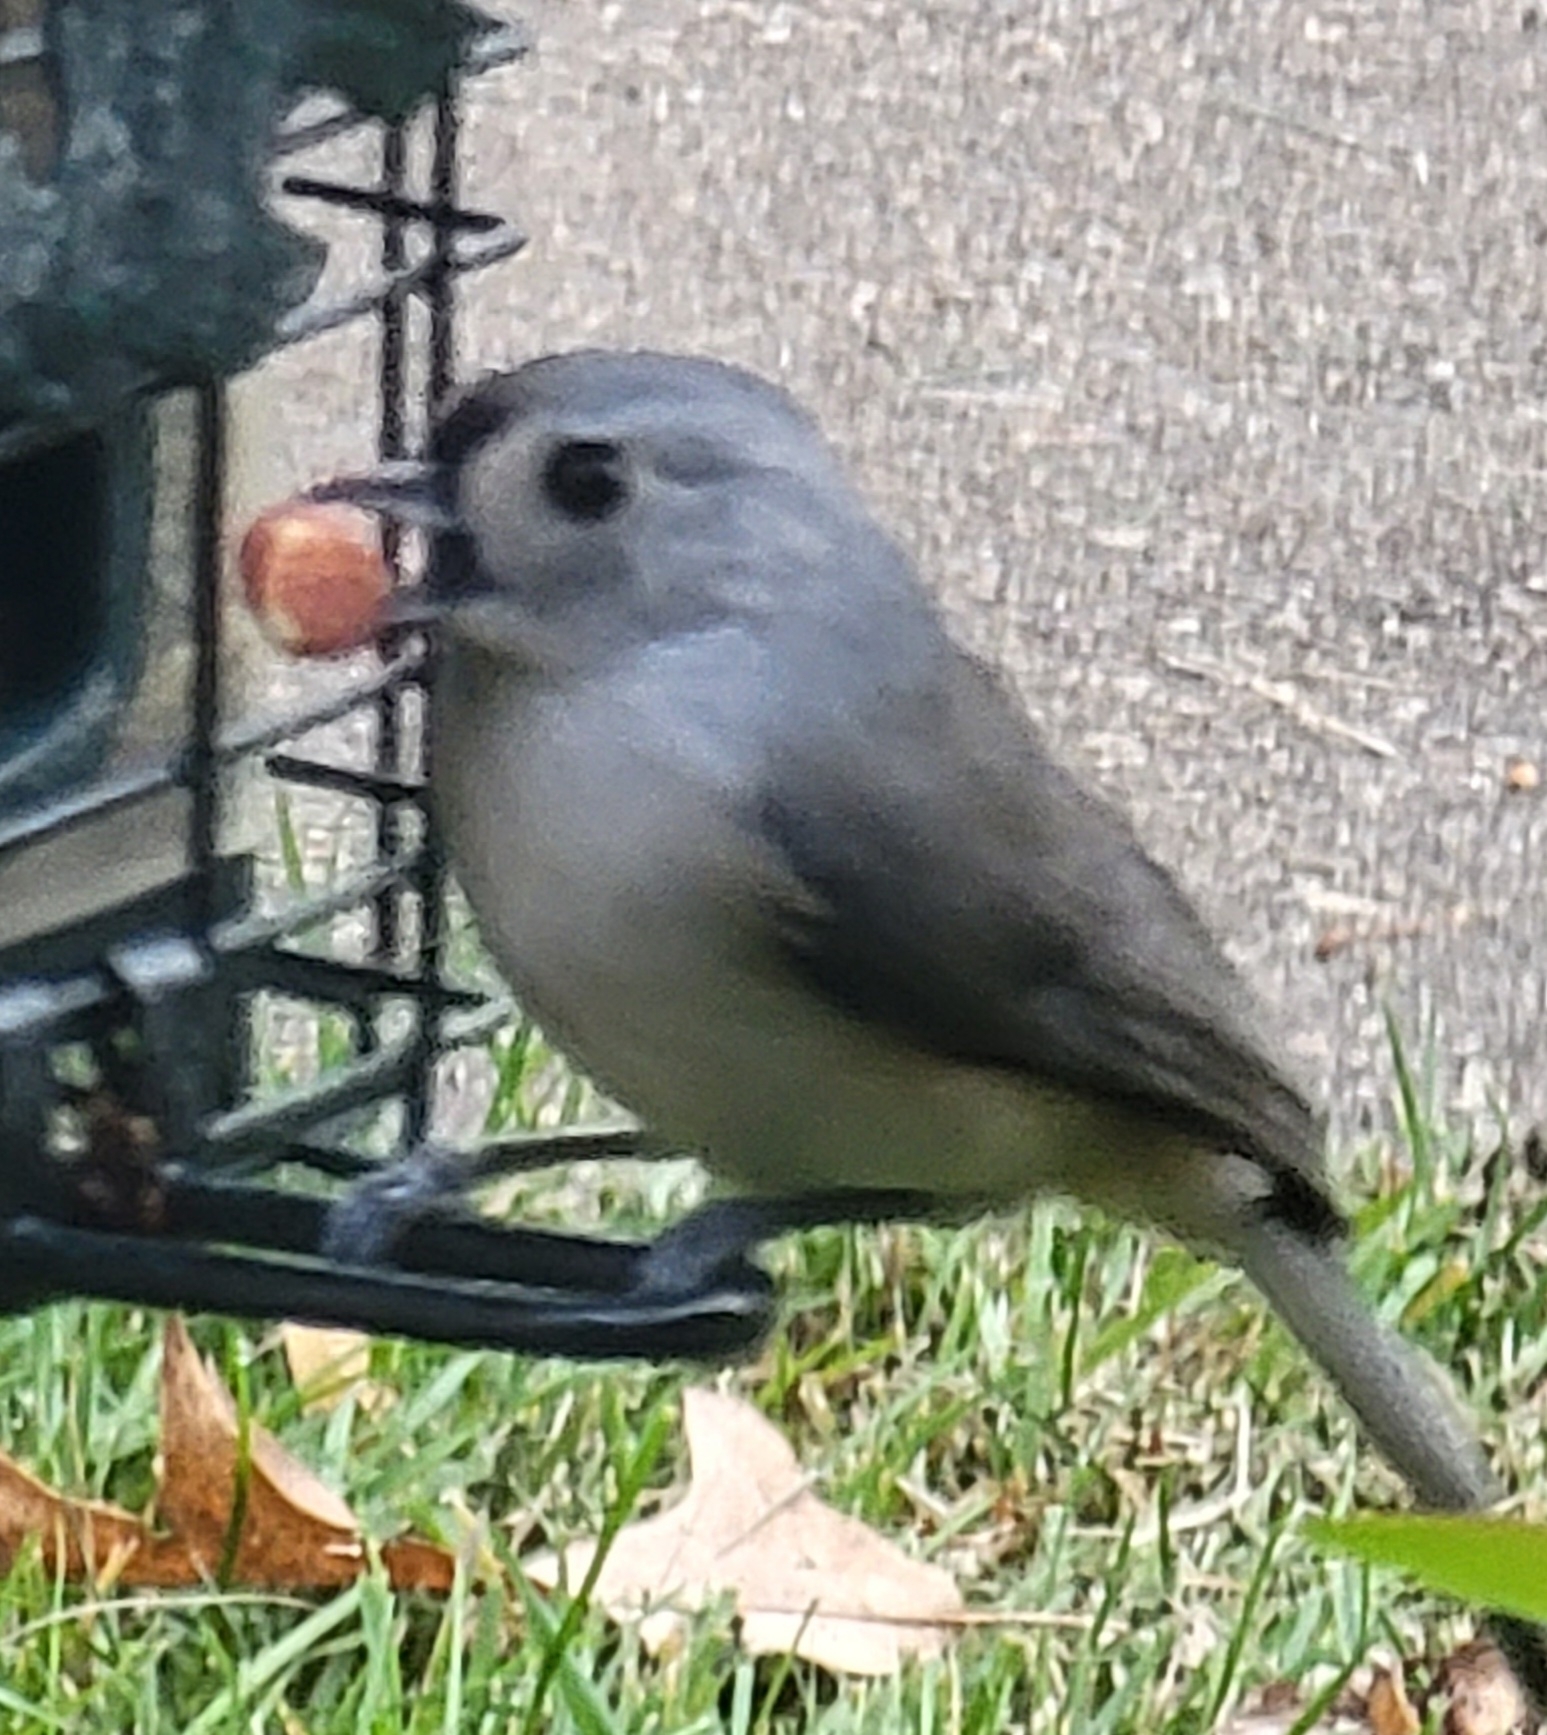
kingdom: Animalia
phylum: Chordata
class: Aves
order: Passeriformes
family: Paridae
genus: Baeolophus
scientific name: Baeolophus bicolor
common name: Tufted titmouse
